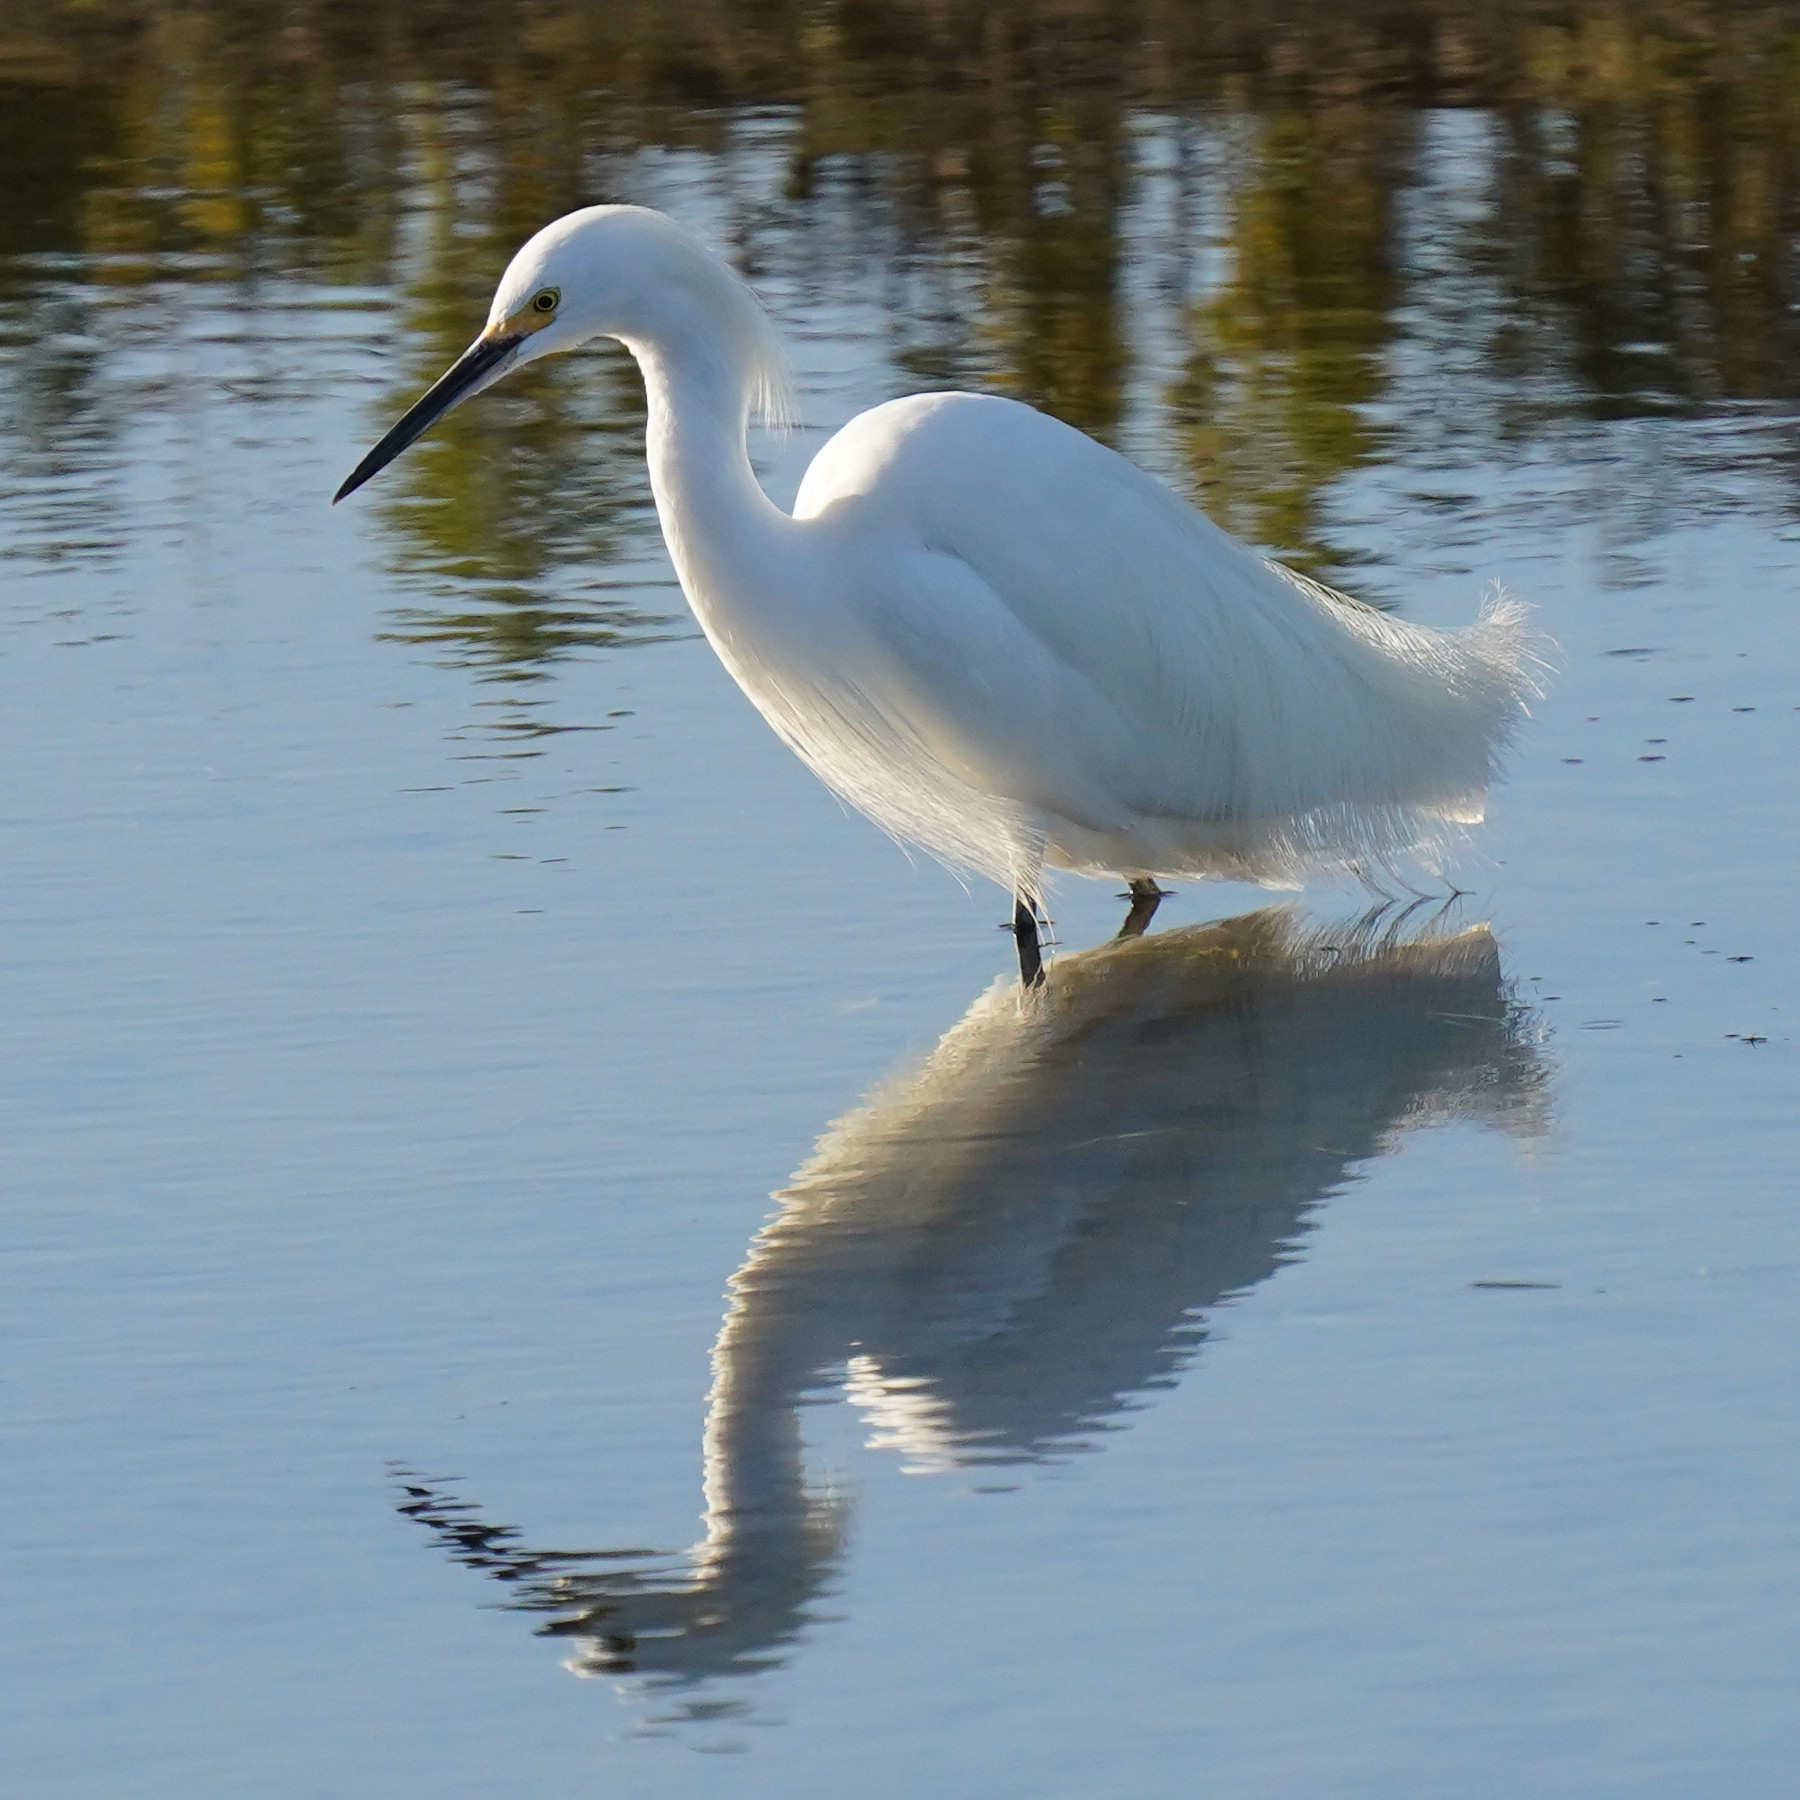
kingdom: Animalia
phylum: Chordata
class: Aves
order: Pelecaniformes
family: Ardeidae
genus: Egretta
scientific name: Egretta thula
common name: Snowy egret
